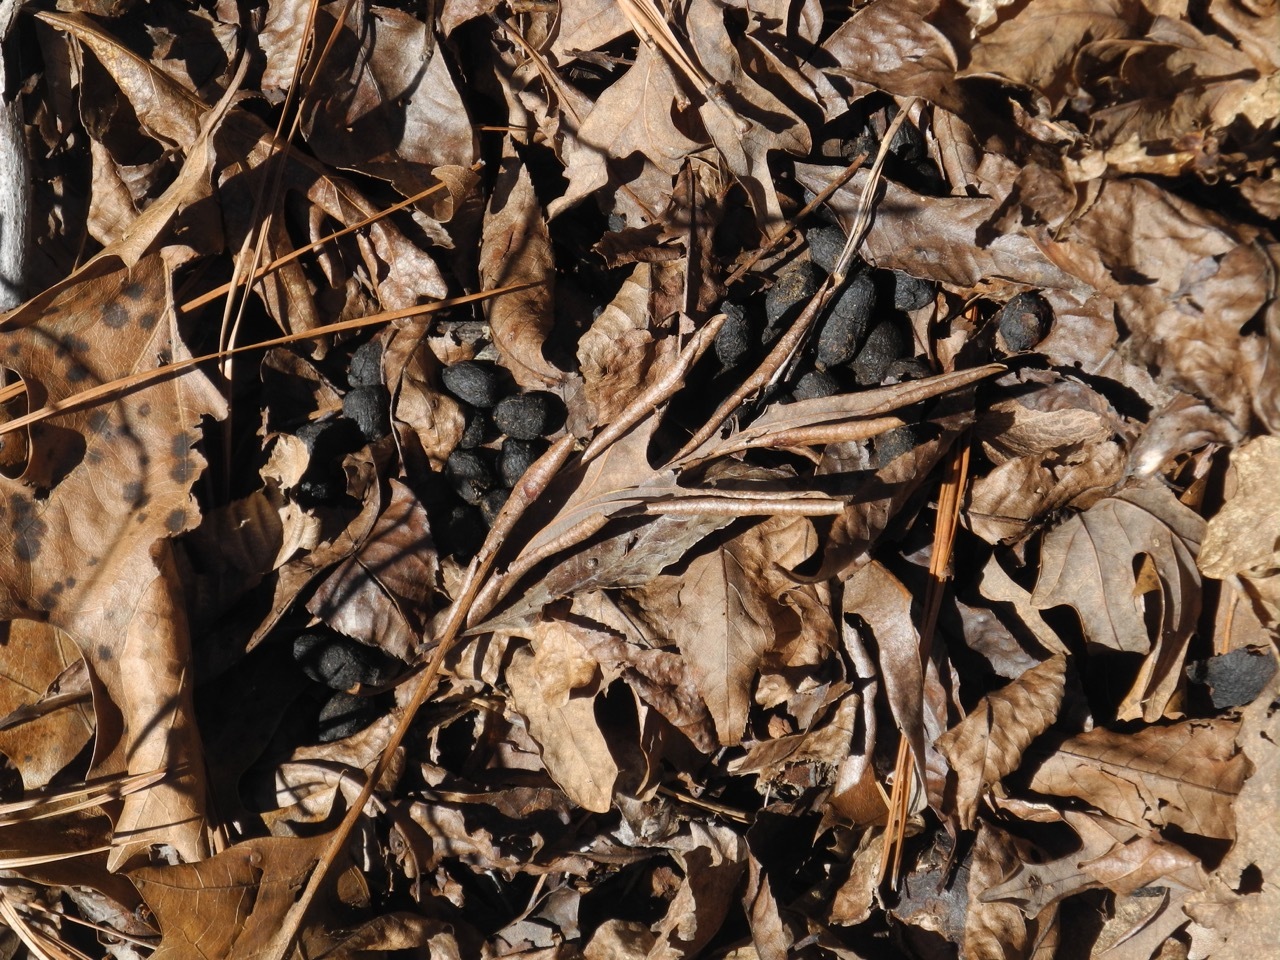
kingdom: Animalia
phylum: Chordata
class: Mammalia
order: Artiodactyla
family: Cervidae
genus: Odocoileus
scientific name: Odocoileus virginianus
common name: White-tailed deer
